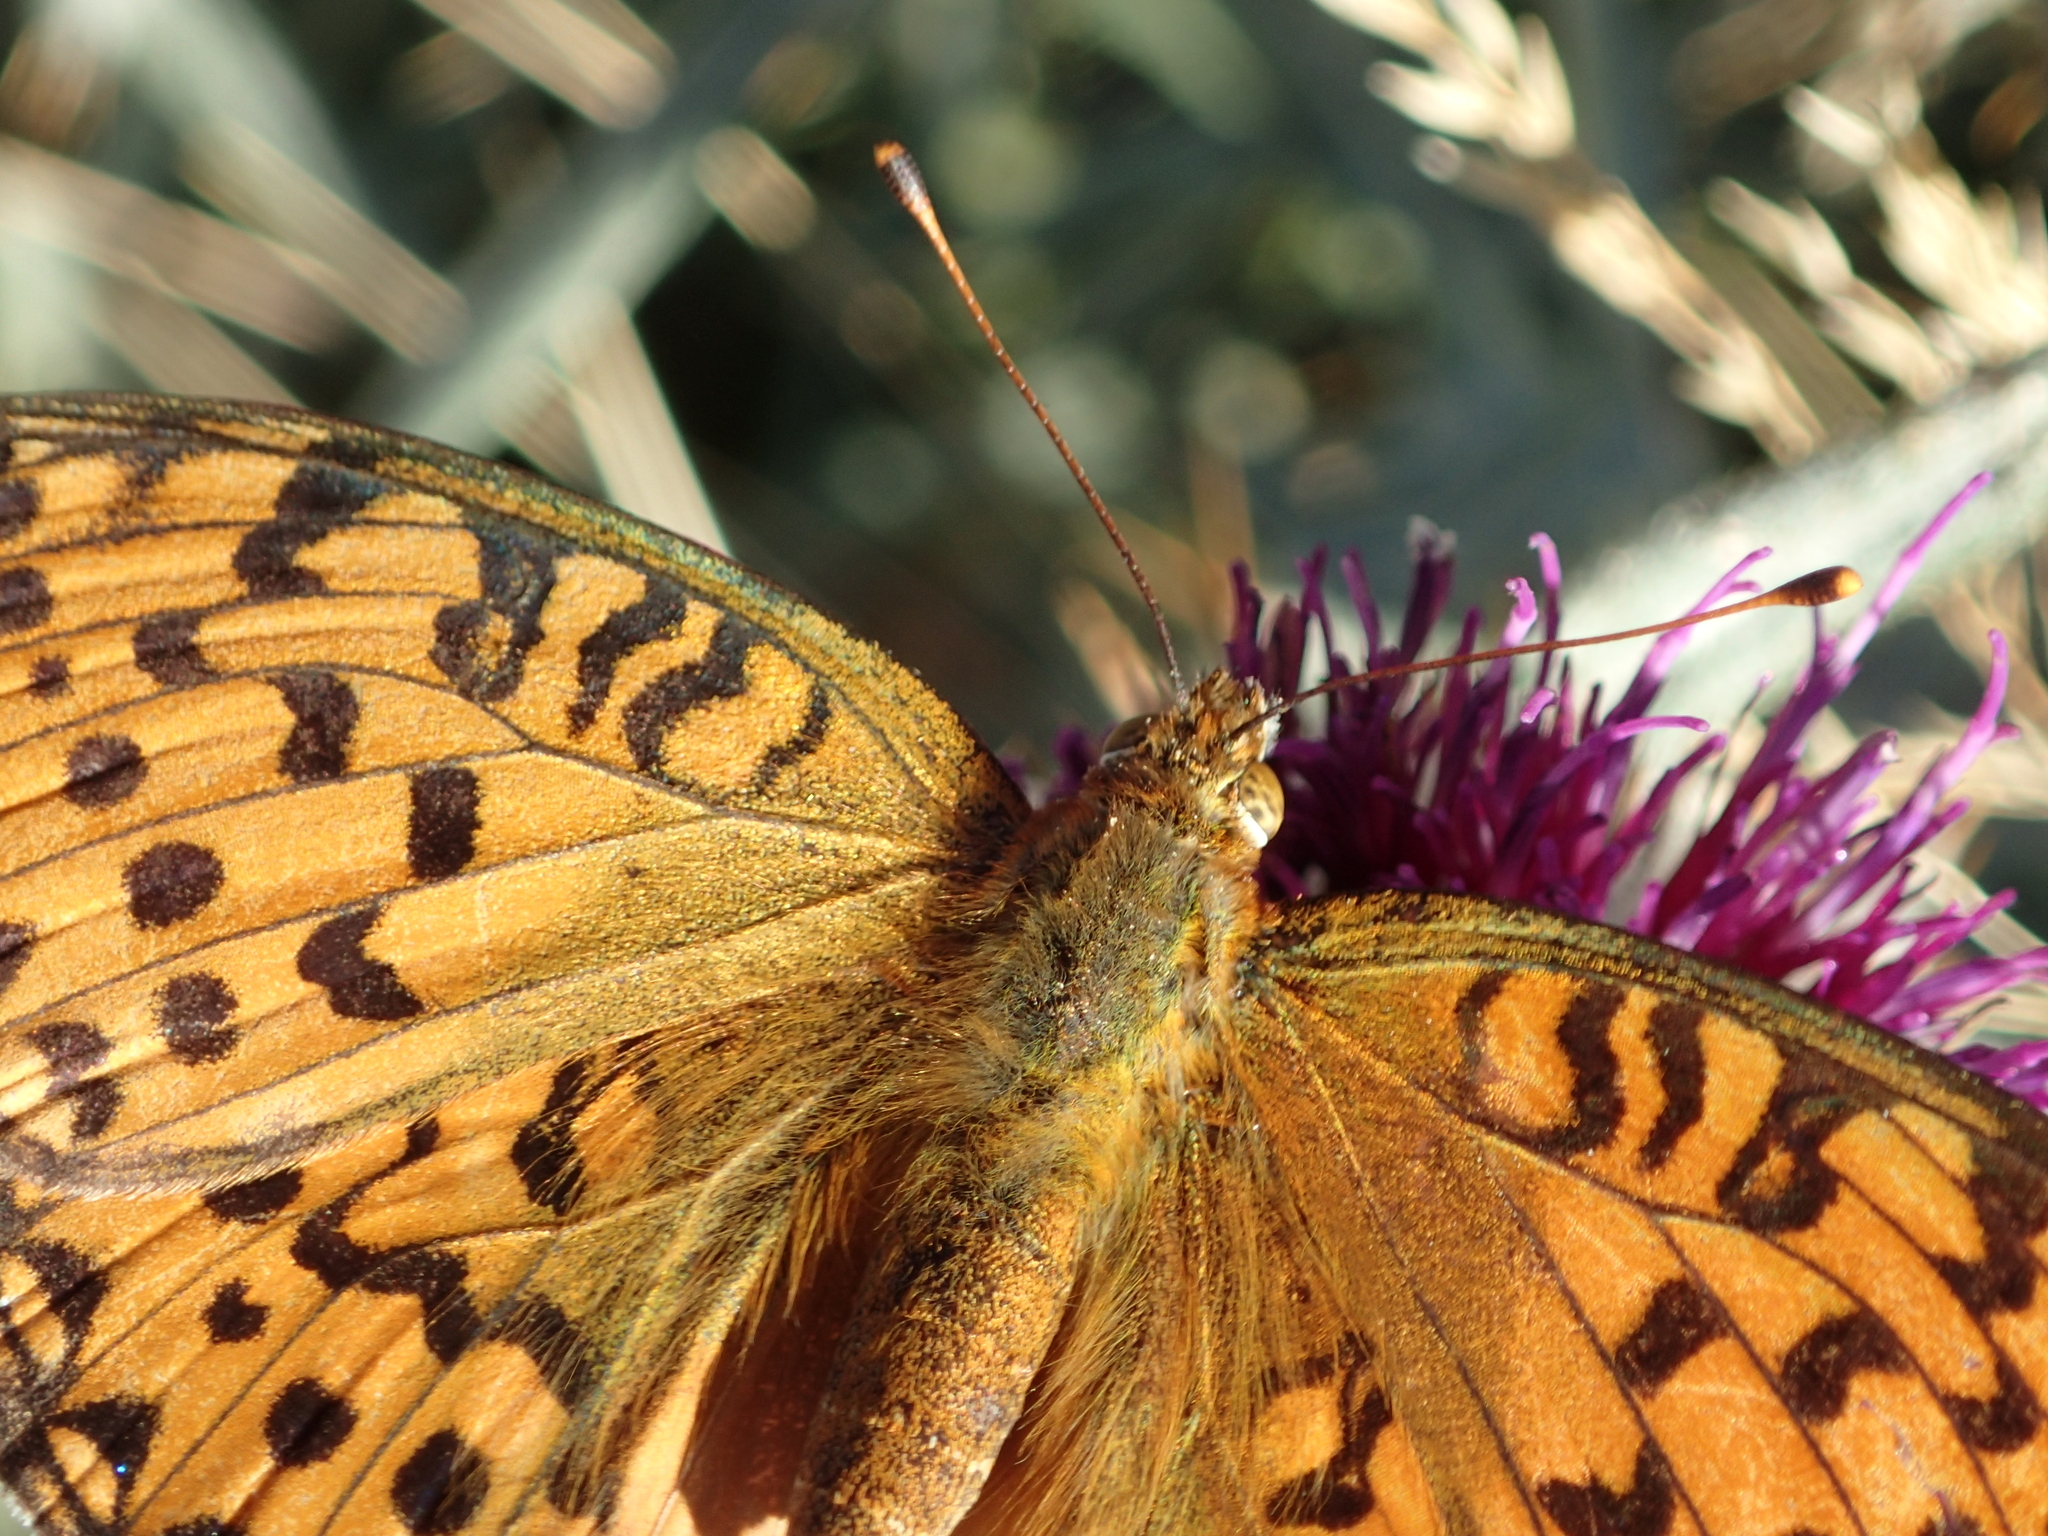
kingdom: Animalia
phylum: Arthropoda
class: Insecta
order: Lepidoptera
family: Nymphalidae
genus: Speyeria
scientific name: Speyeria aglaja
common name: Dark green fritillary
